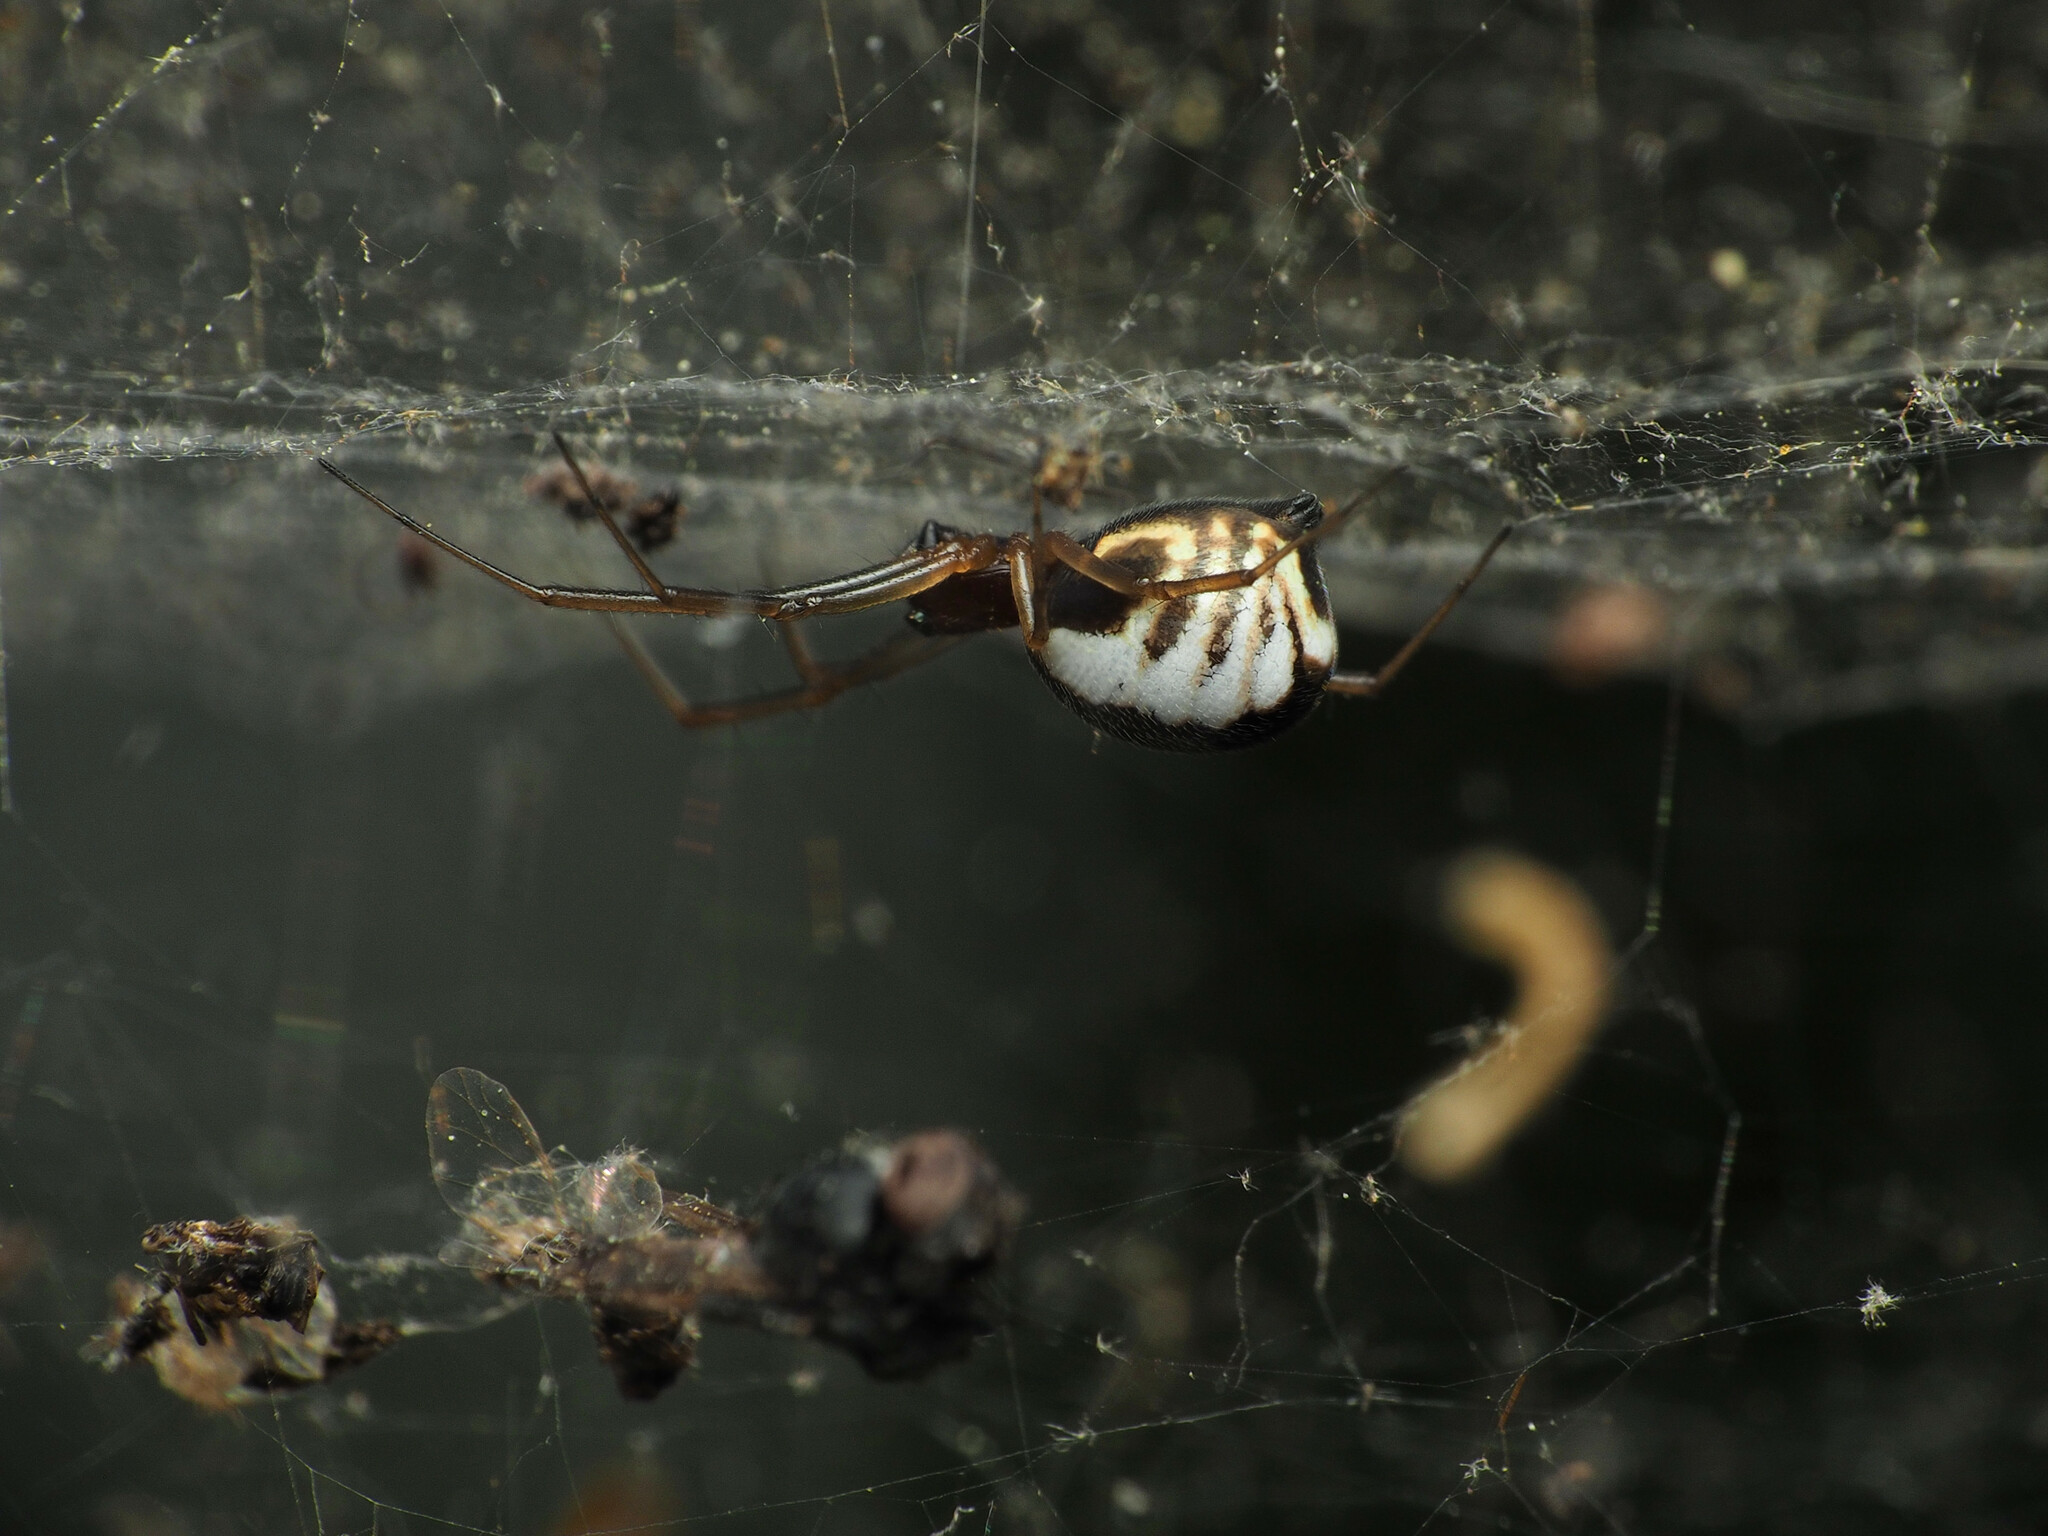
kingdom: Animalia
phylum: Arthropoda
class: Arachnida
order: Araneae
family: Linyphiidae
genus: Frontinella
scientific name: Frontinella pyramitela
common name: Bowl-and-doily spider
